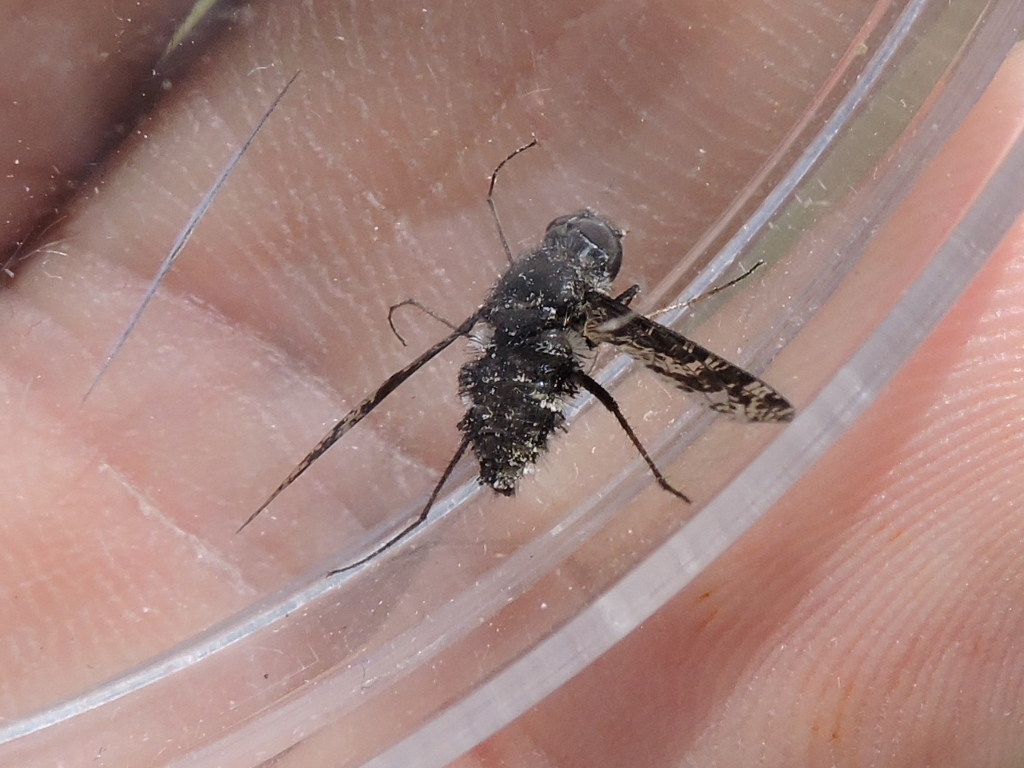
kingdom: Animalia
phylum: Arthropoda
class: Insecta
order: Diptera
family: Bombyliidae
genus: Anthrax
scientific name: Anthrax
